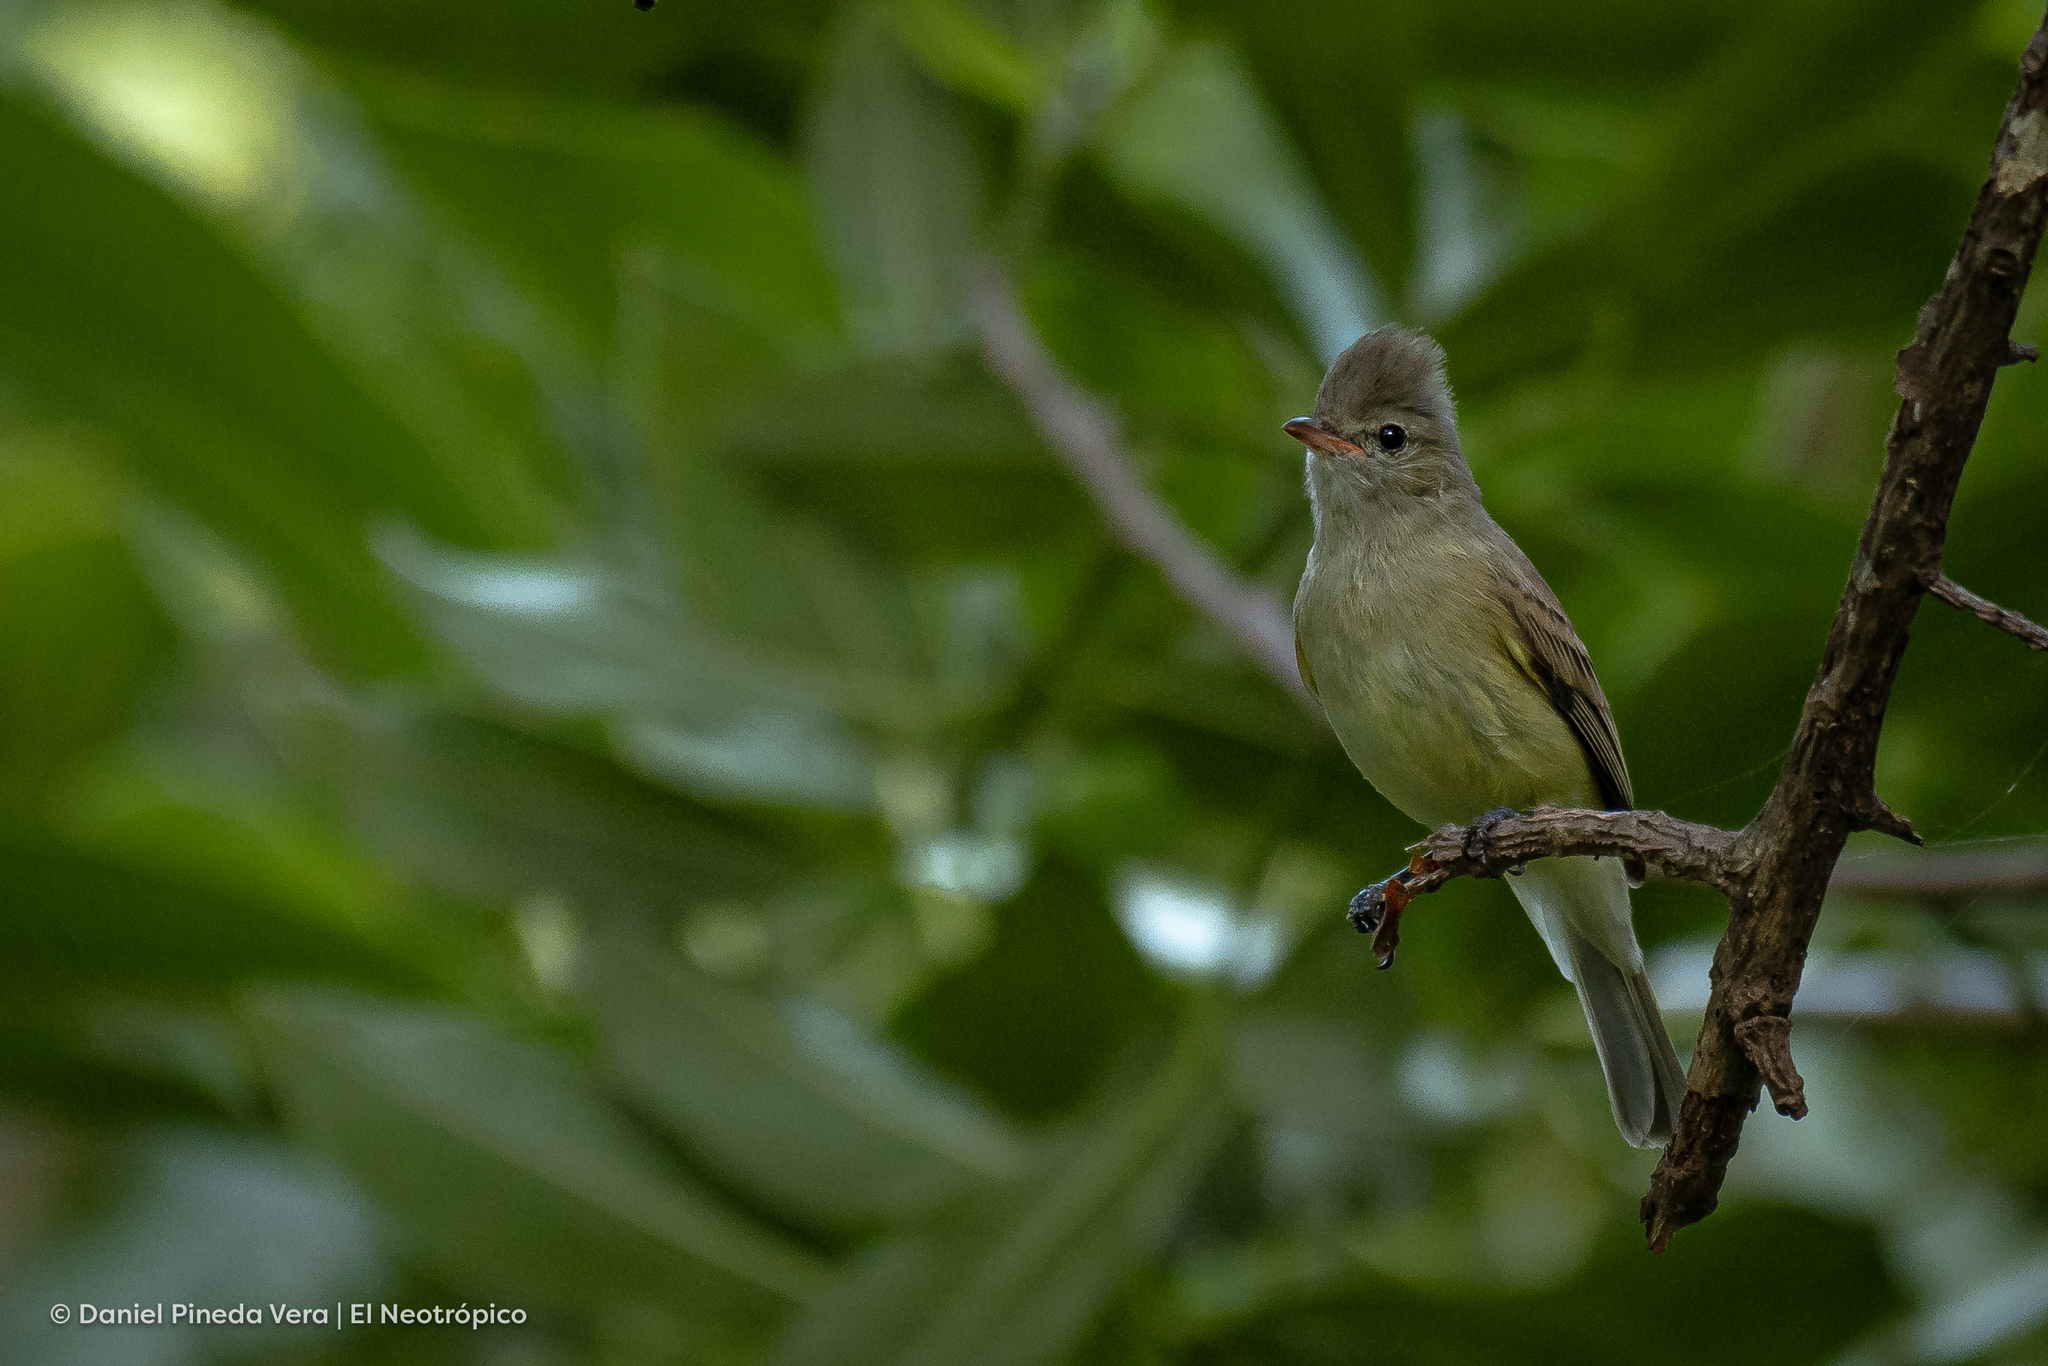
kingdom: Animalia
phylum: Chordata
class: Aves
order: Passeriformes
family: Tyrannidae
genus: Camptostoma
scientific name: Camptostoma imberbe
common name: Northern beardless-tyrannulet
